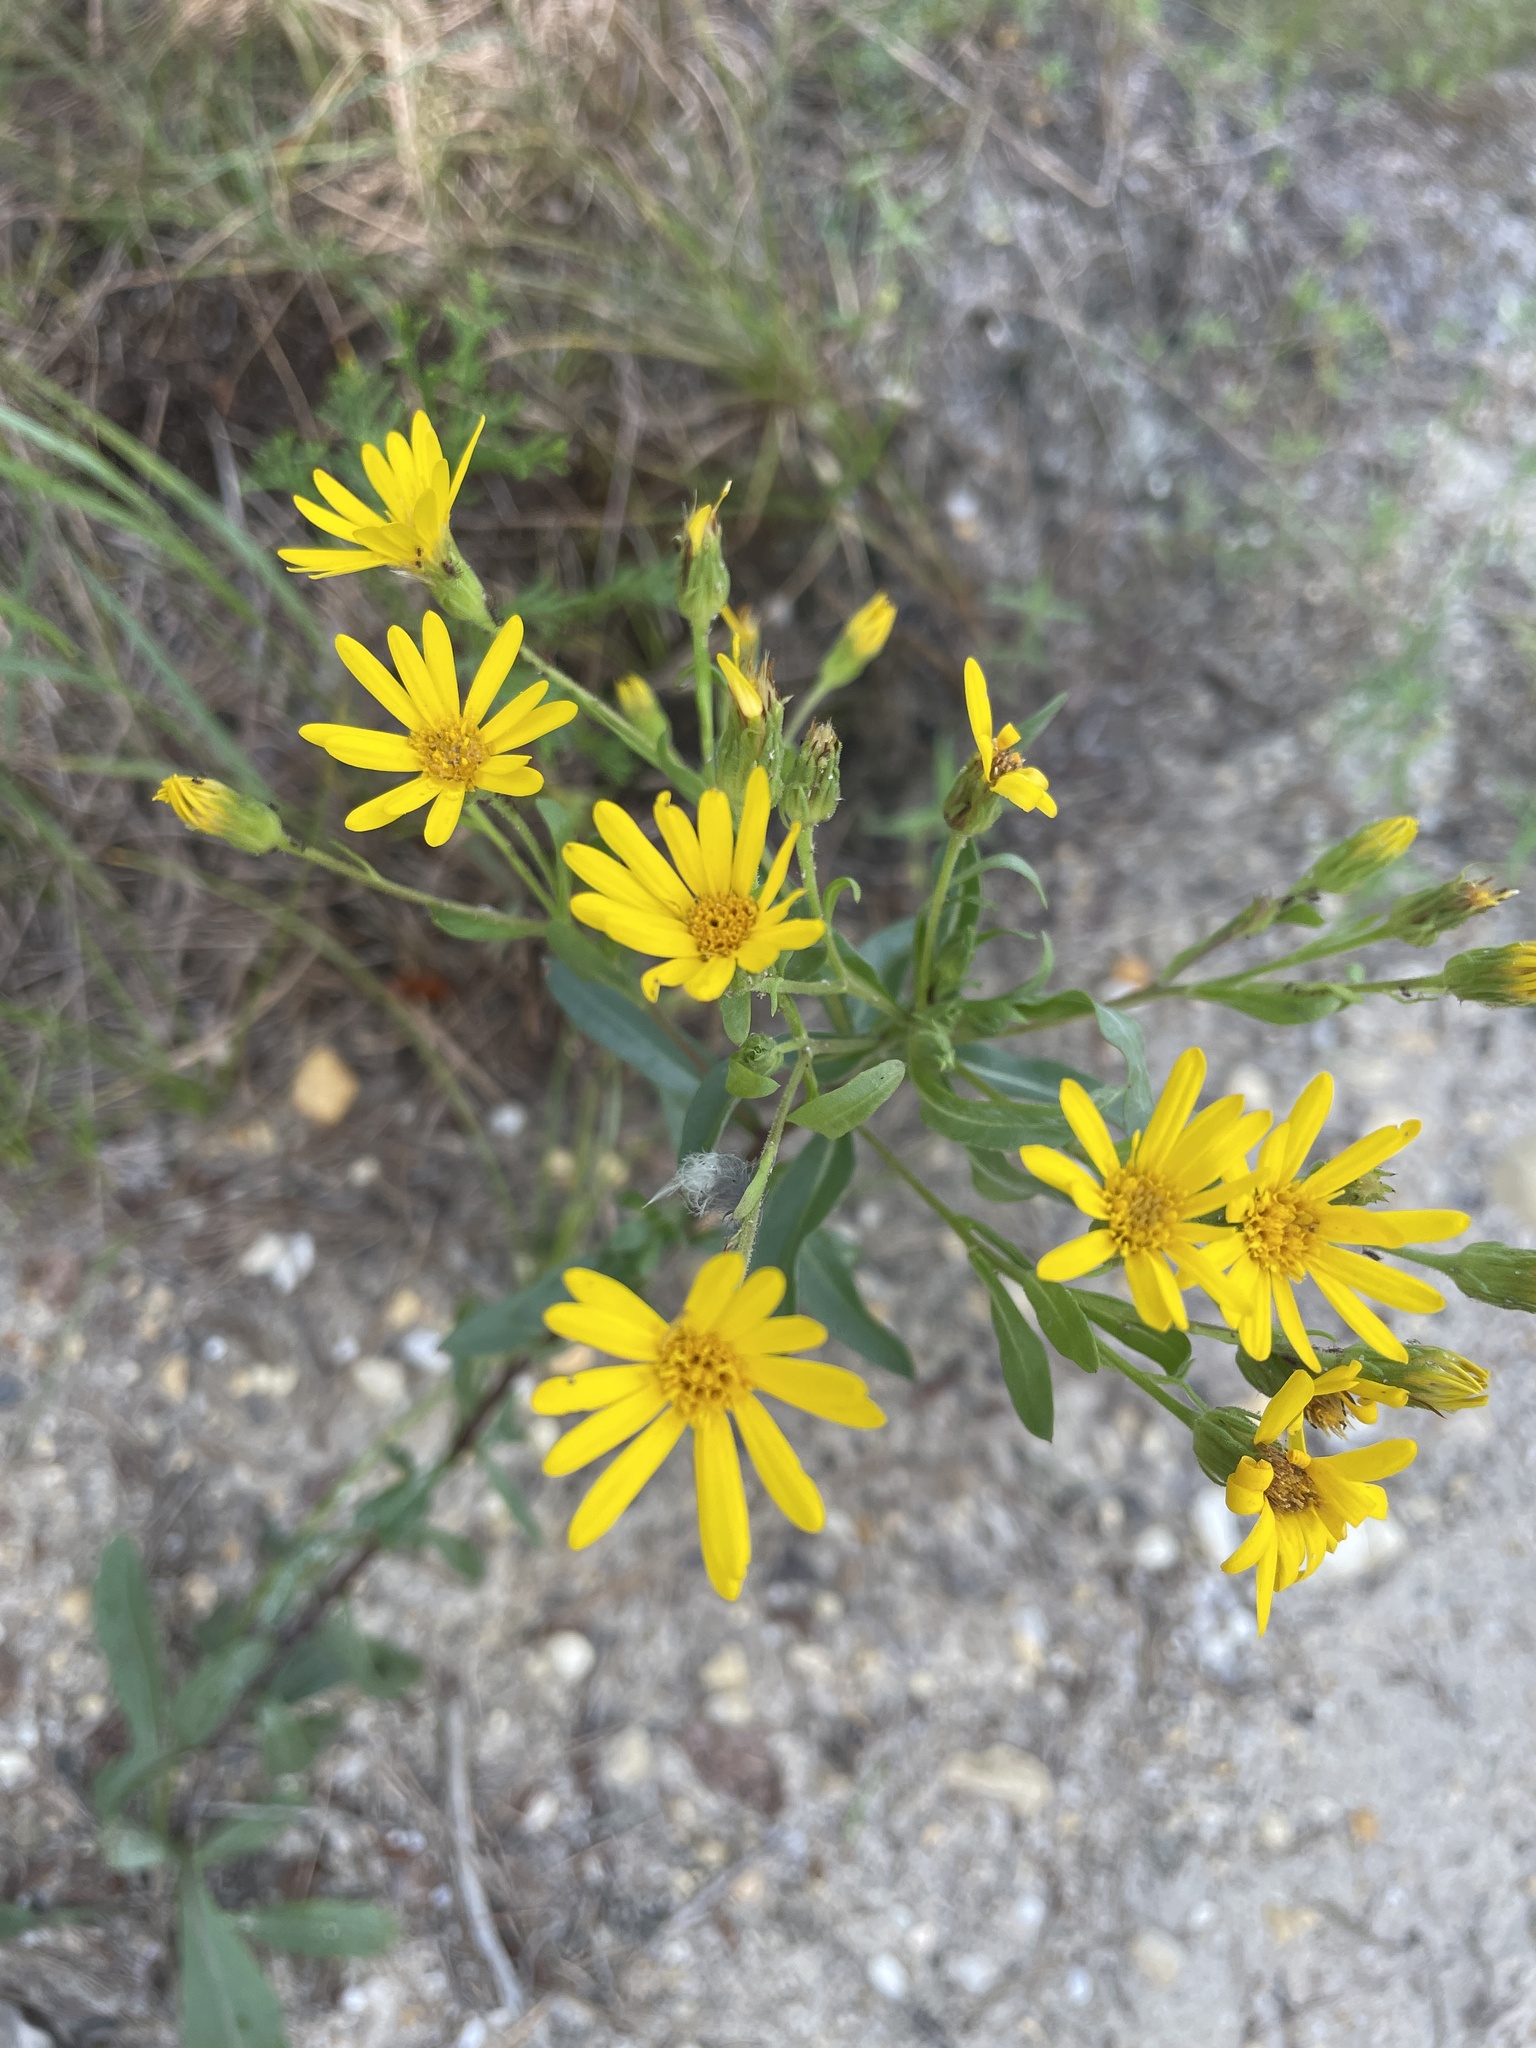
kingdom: Plantae
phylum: Tracheophyta
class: Magnoliopsida
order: Asterales
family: Asteraceae
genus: Chrysopsis
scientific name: Chrysopsis mariana
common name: Maryland golden-aster
